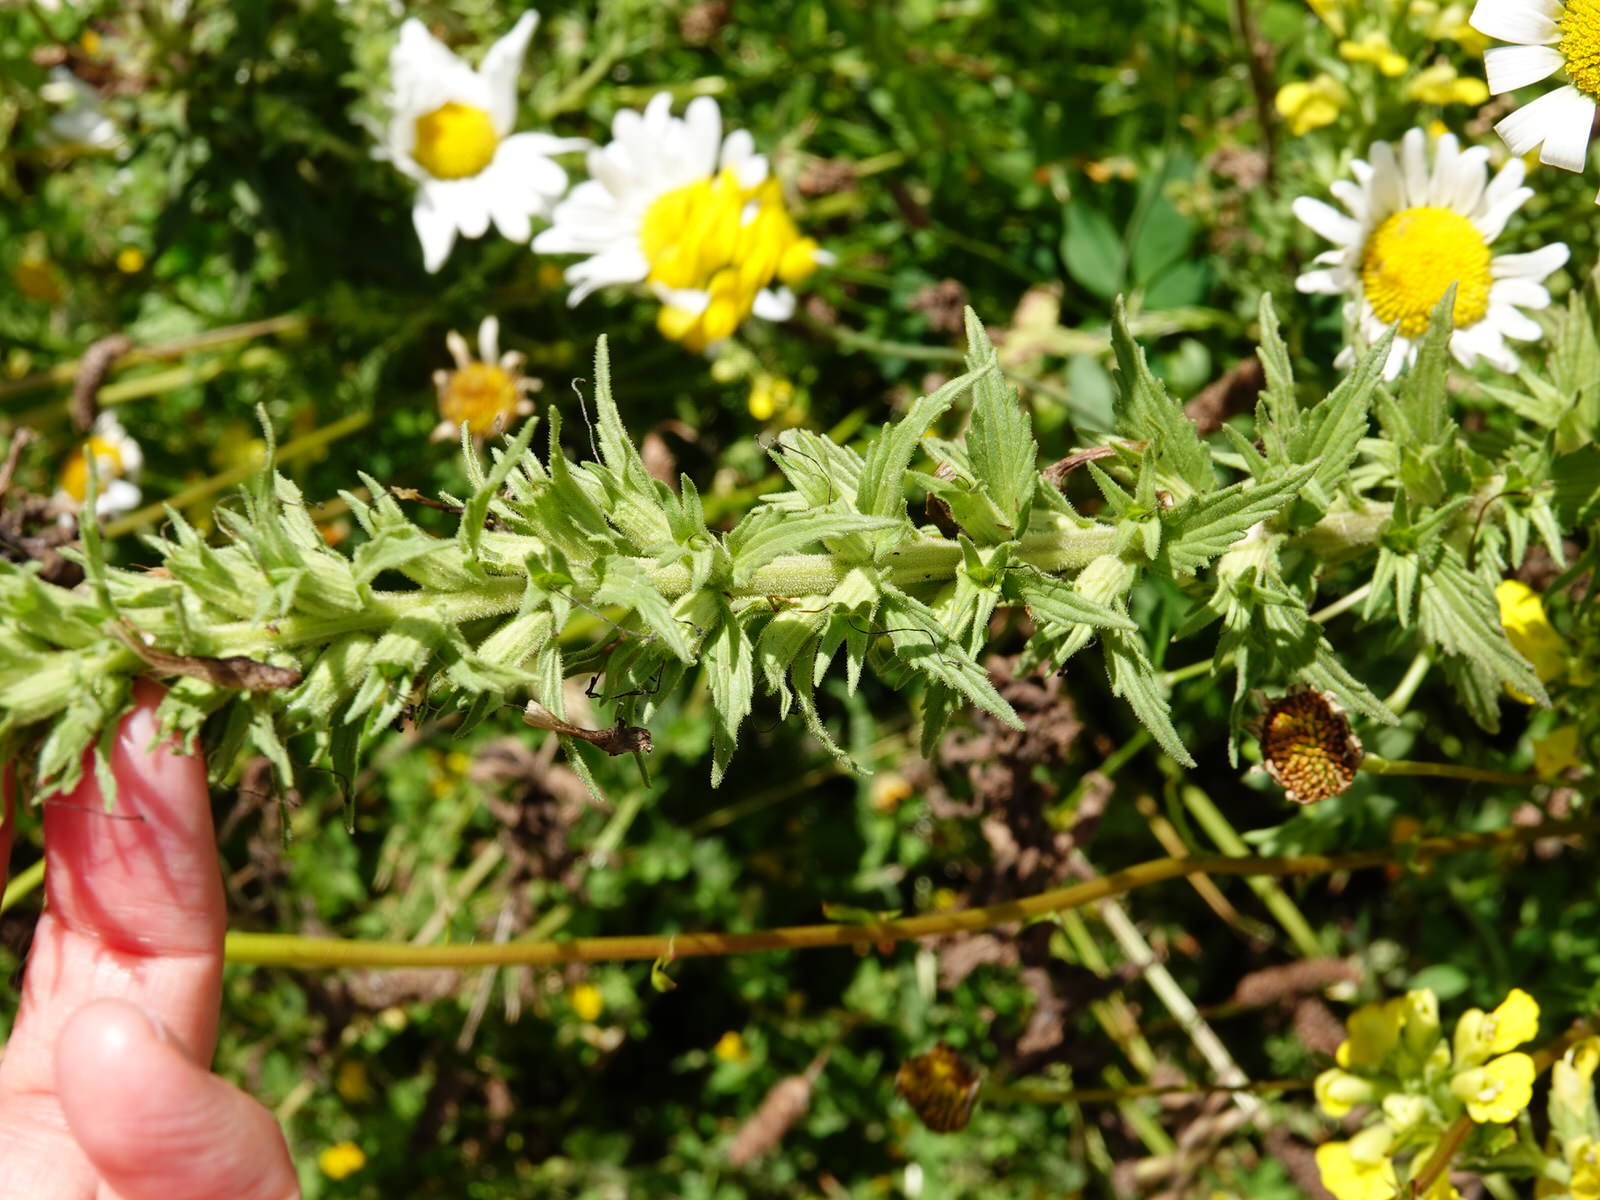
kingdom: Plantae
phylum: Tracheophyta
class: Magnoliopsida
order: Lamiales
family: Orobanchaceae
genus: Bellardia
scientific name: Bellardia viscosa
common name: Sticky parentucellia
